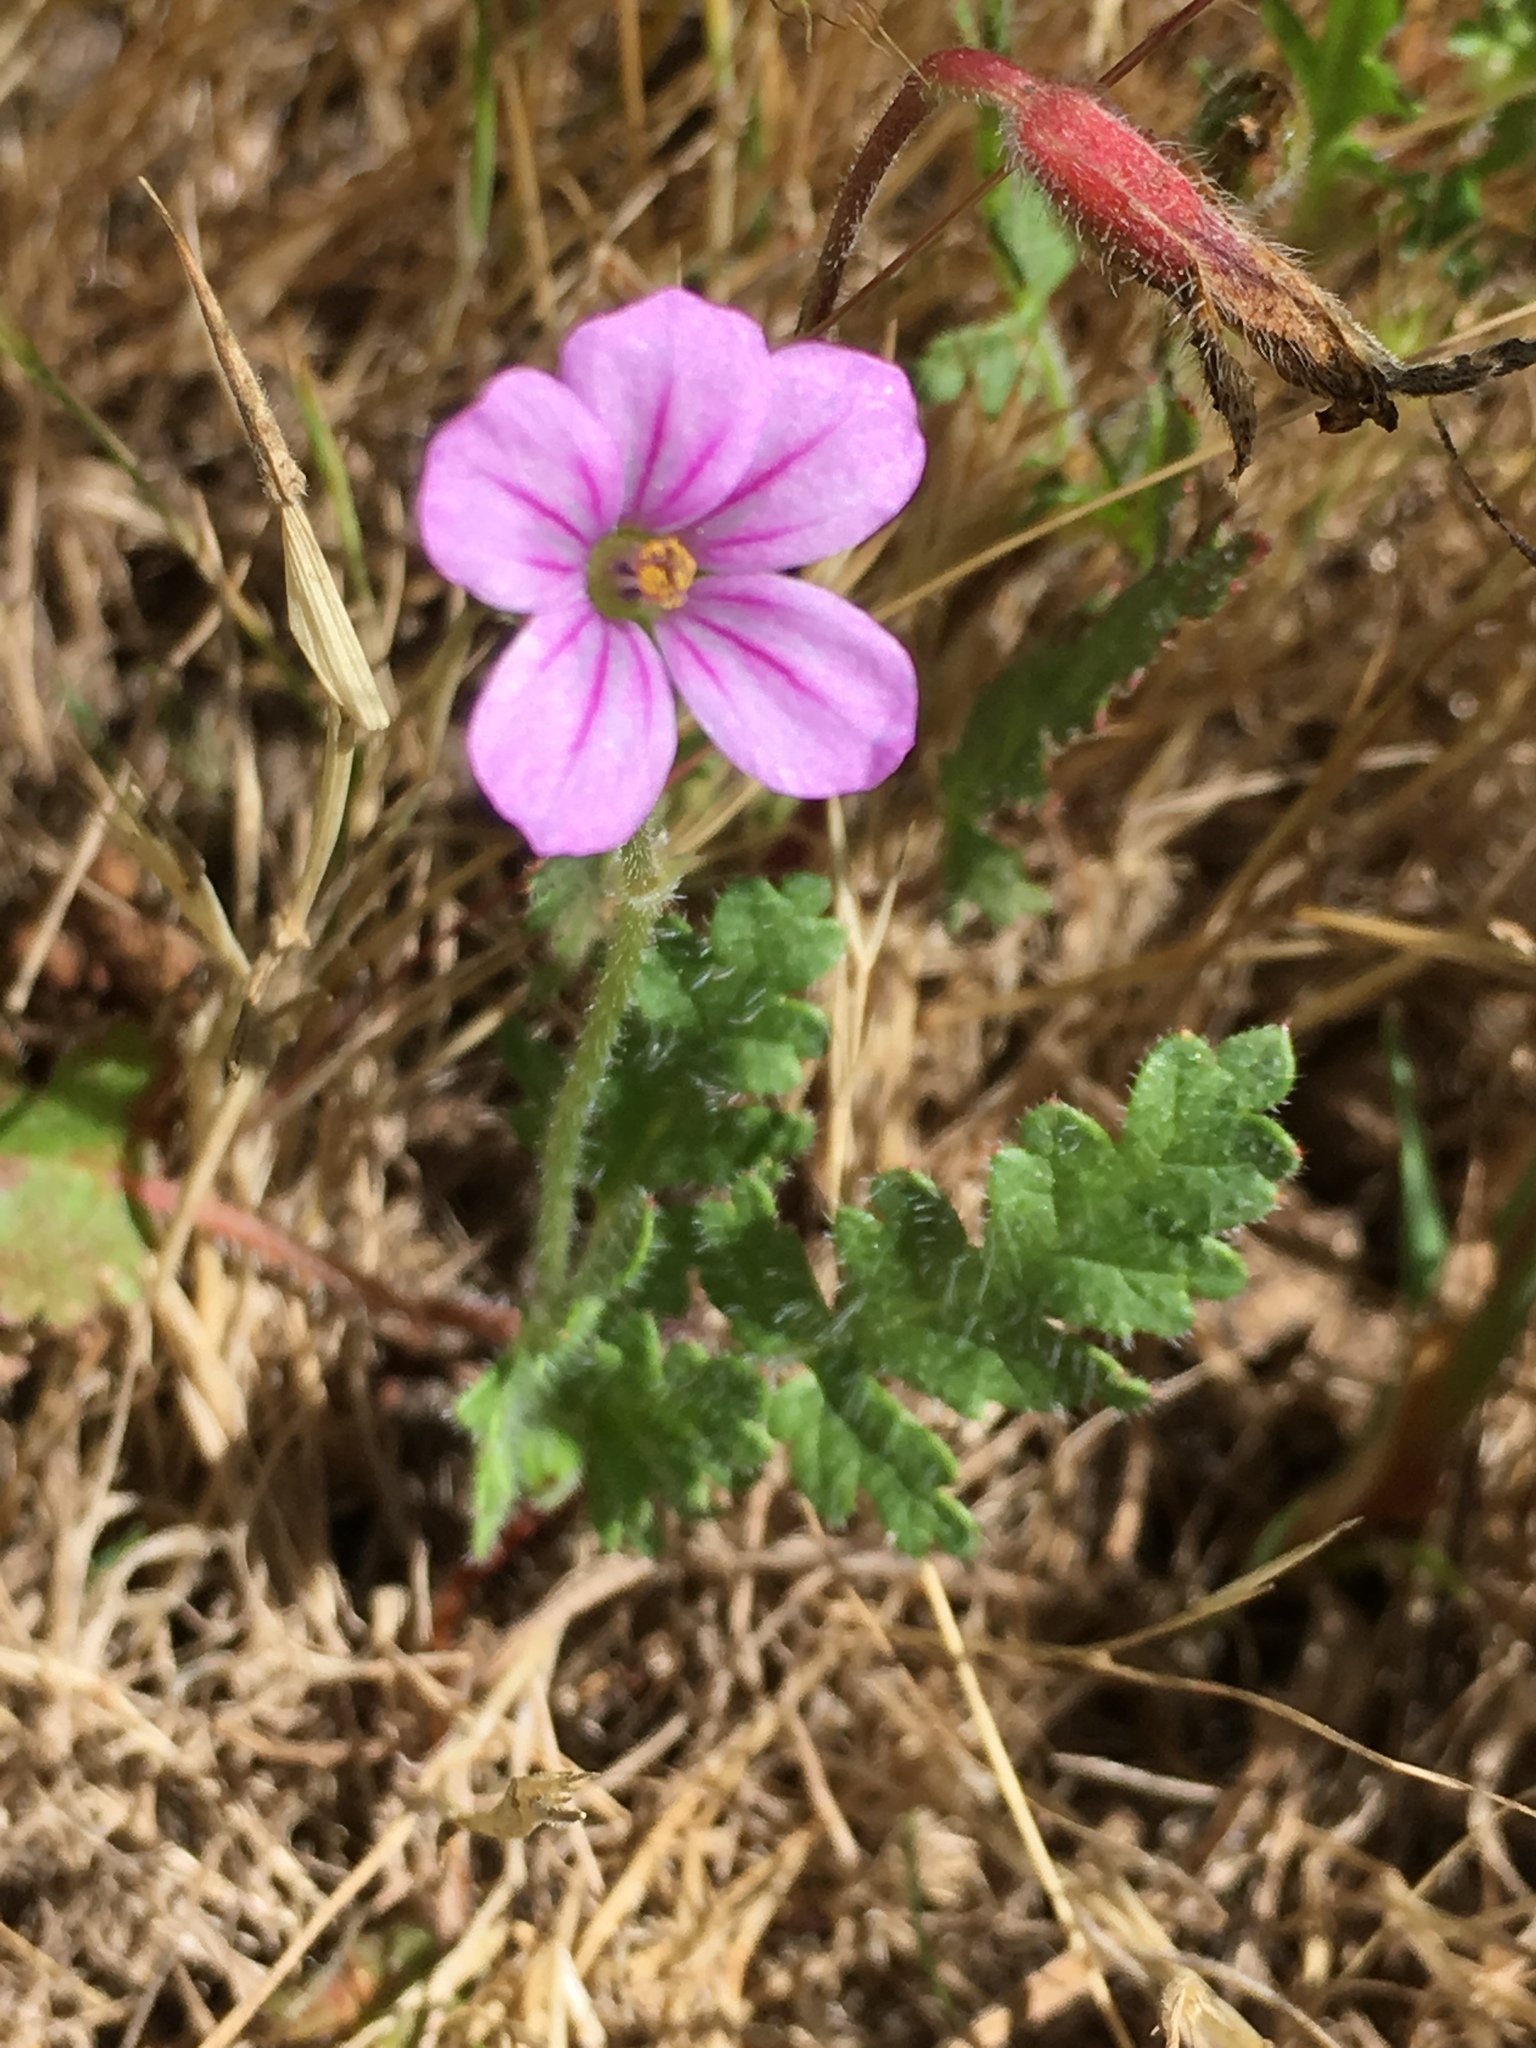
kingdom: Plantae
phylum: Tracheophyta
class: Magnoliopsida
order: Geraniales
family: Geraniaceae
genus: Erodium
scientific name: Erodium botrys
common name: Mediterranean stork's-bill
